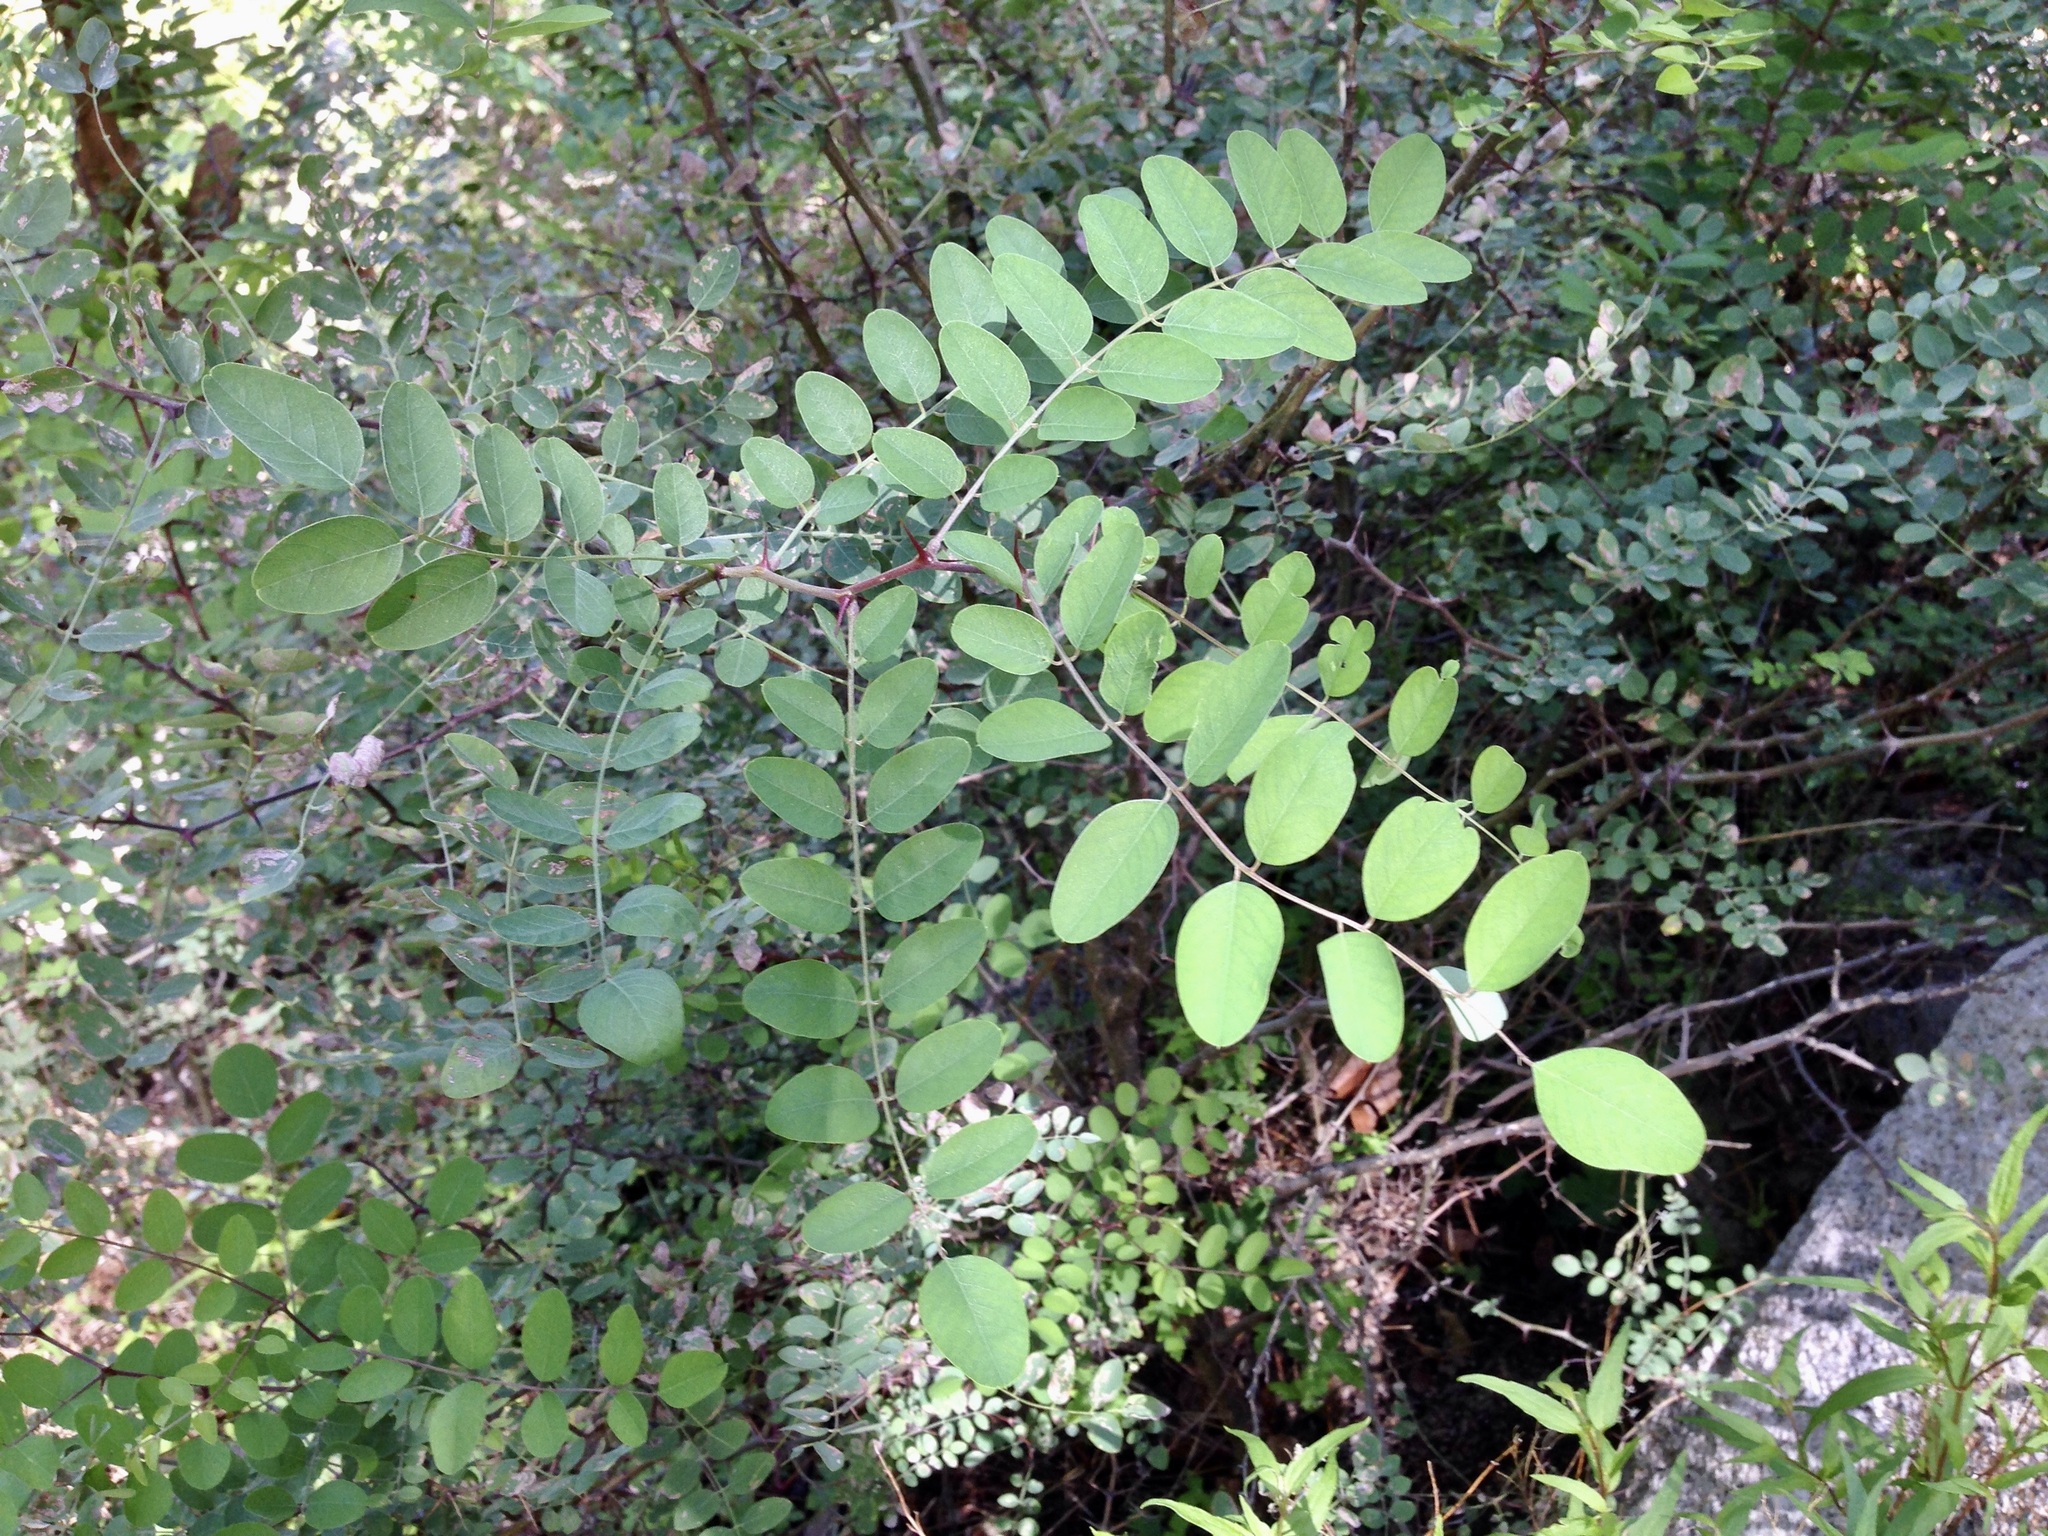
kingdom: Plantae
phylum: Tracheophyta
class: Magnoliopsida
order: Fabales
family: Fabaceae
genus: Robinia
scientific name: Robinia neomexicana
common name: New mexico locust
